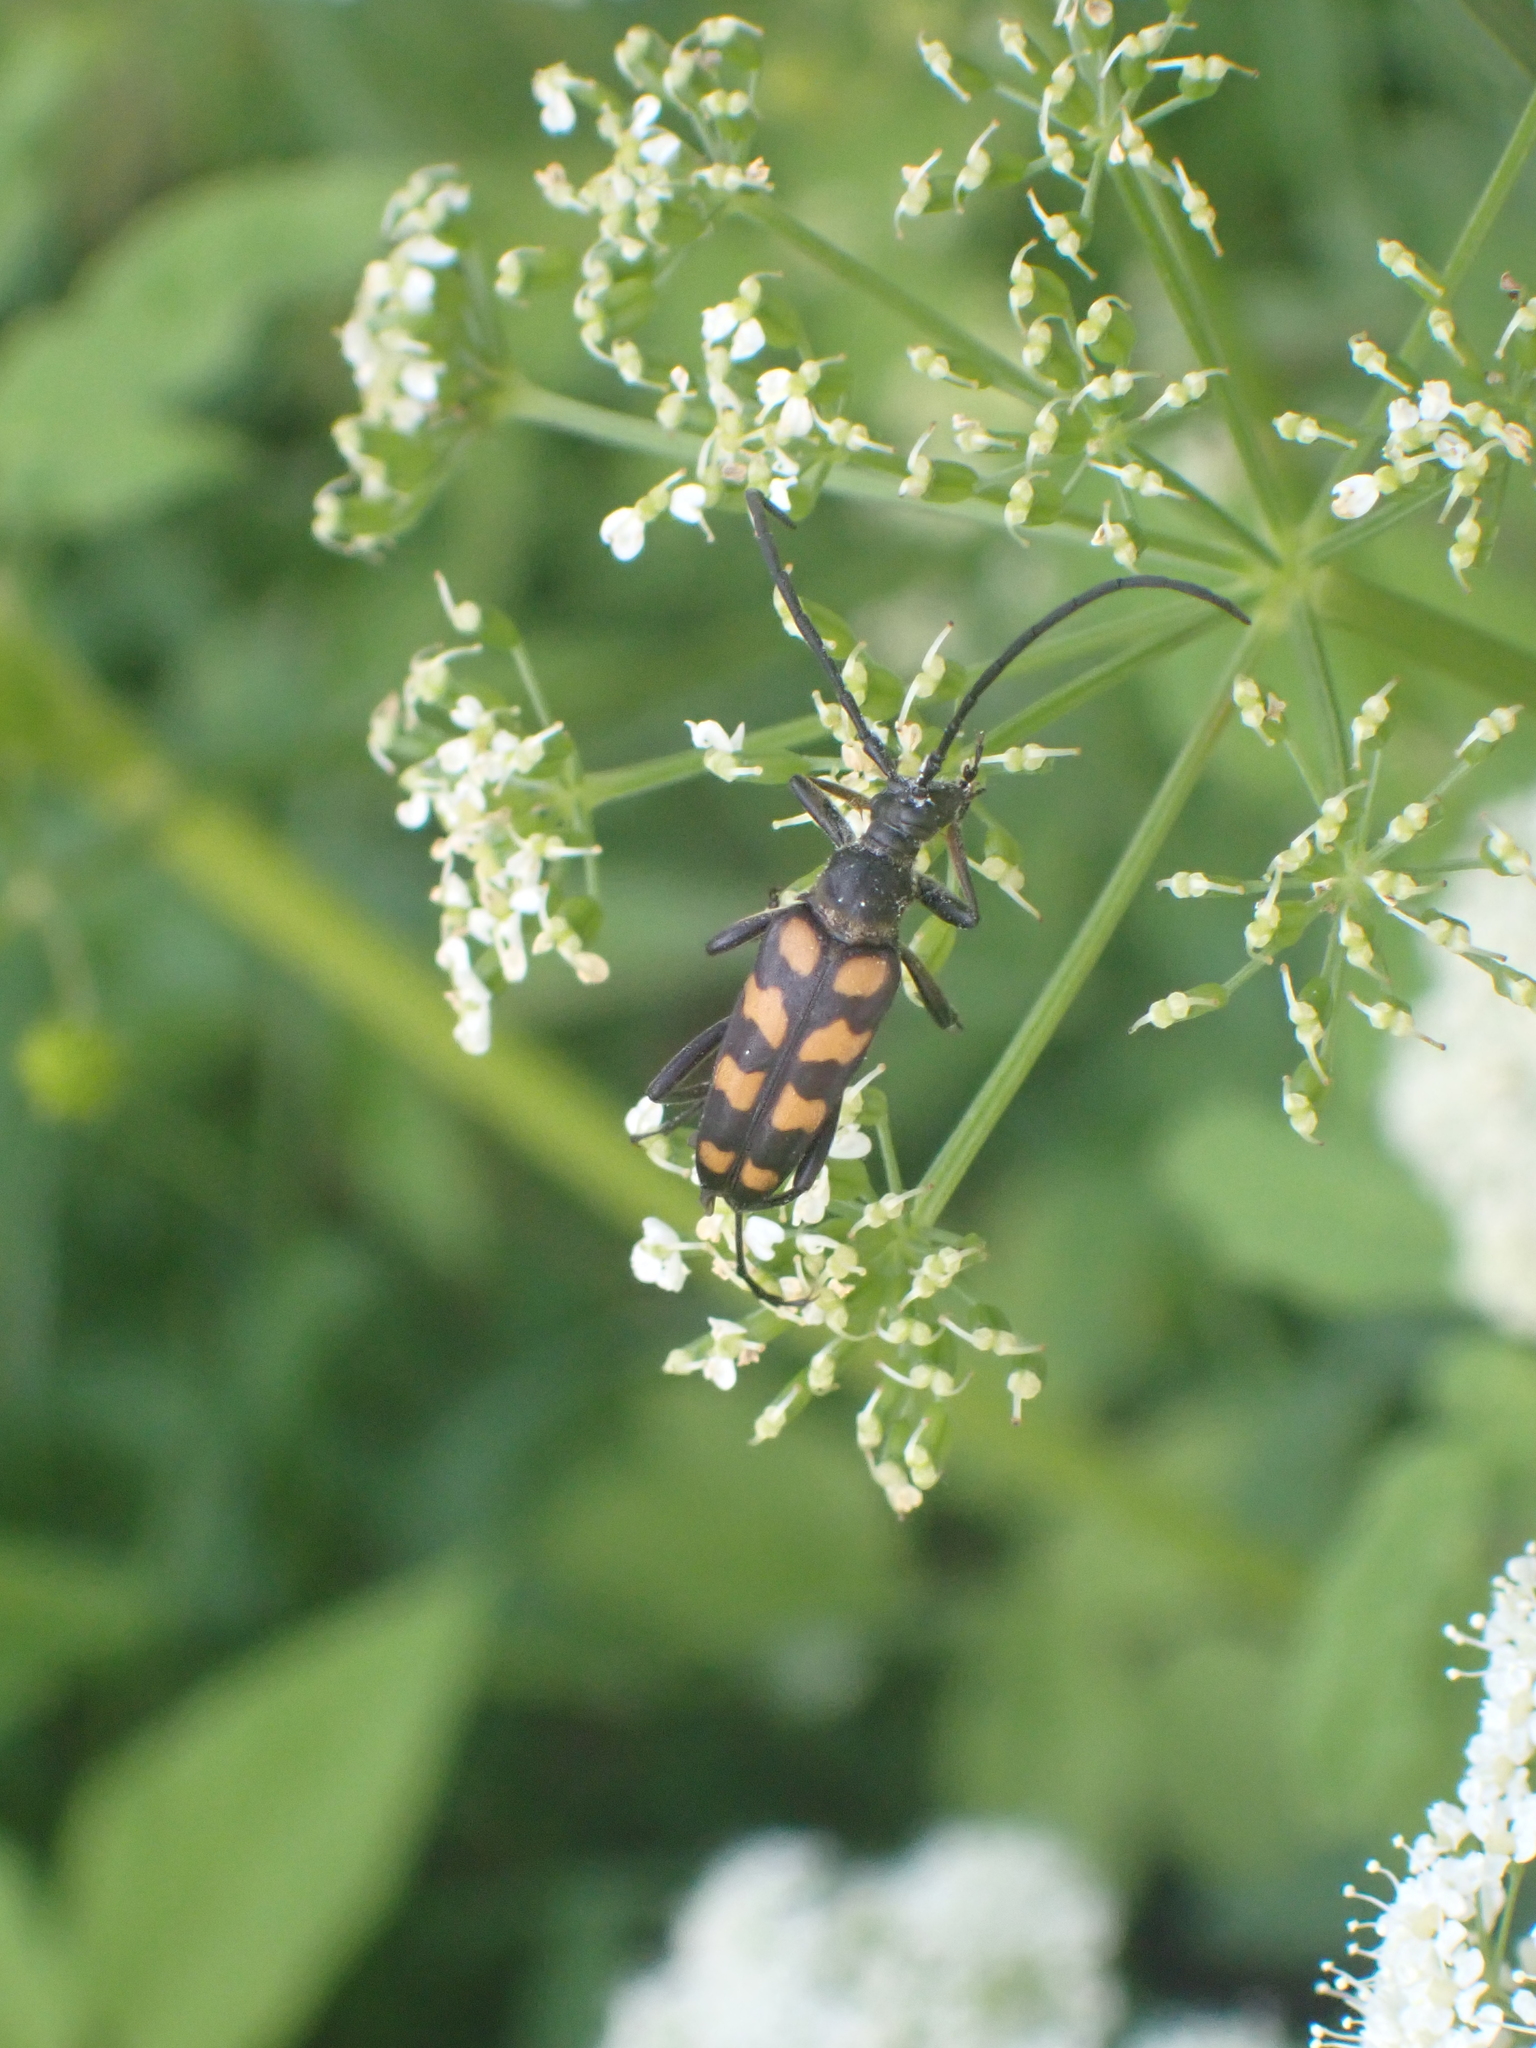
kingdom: Animalia
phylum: Arthropoda
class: Insecta
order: Coleoptera
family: Cerambycidae
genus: Leptura
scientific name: Leptura quadrifasciata
